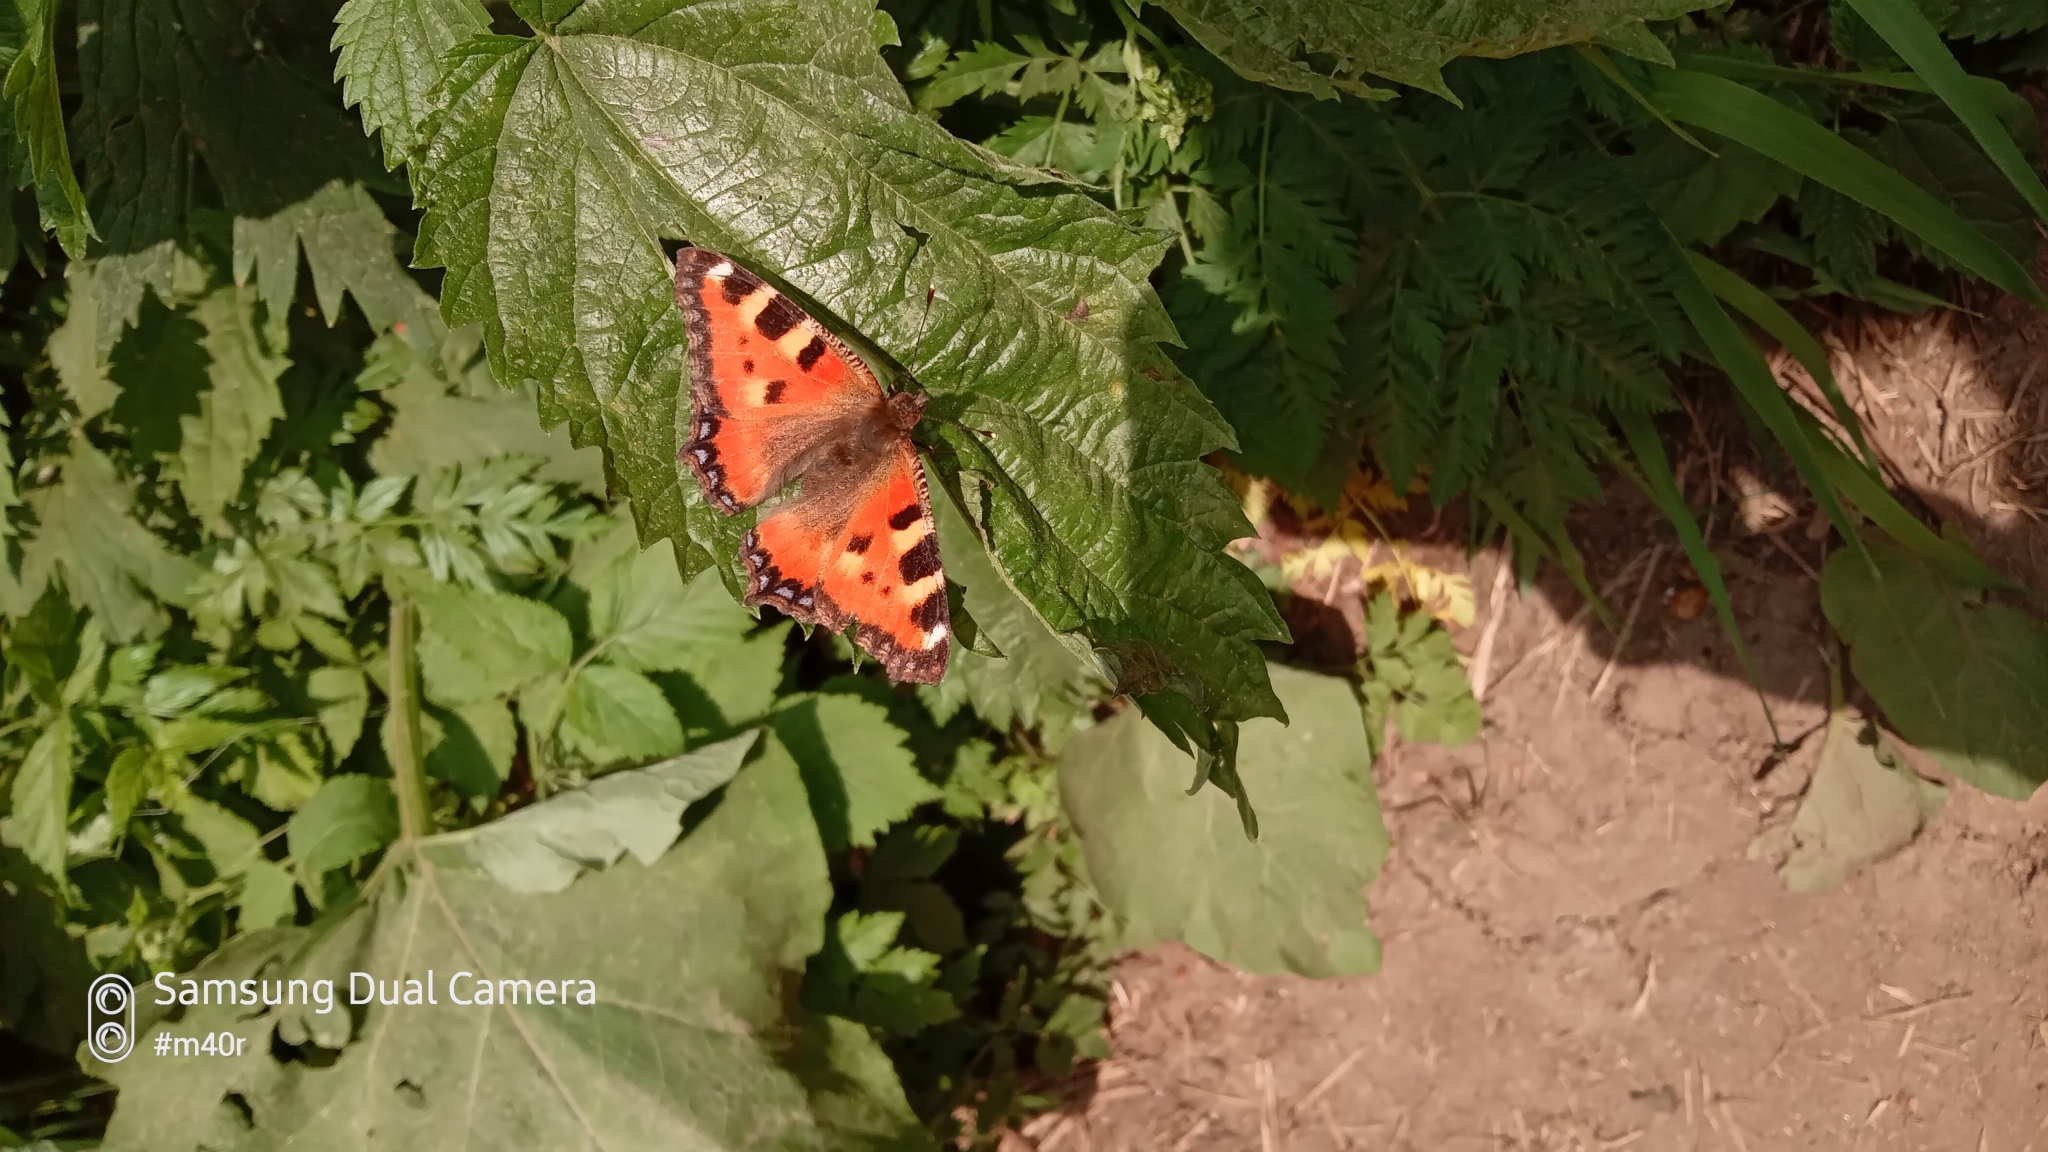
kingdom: Animalia
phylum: Arthropoda
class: Insecta
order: Lepidoptera
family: Nymphalidae
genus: Aglais
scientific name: Aglais urticae
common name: Small tortoiseshell
